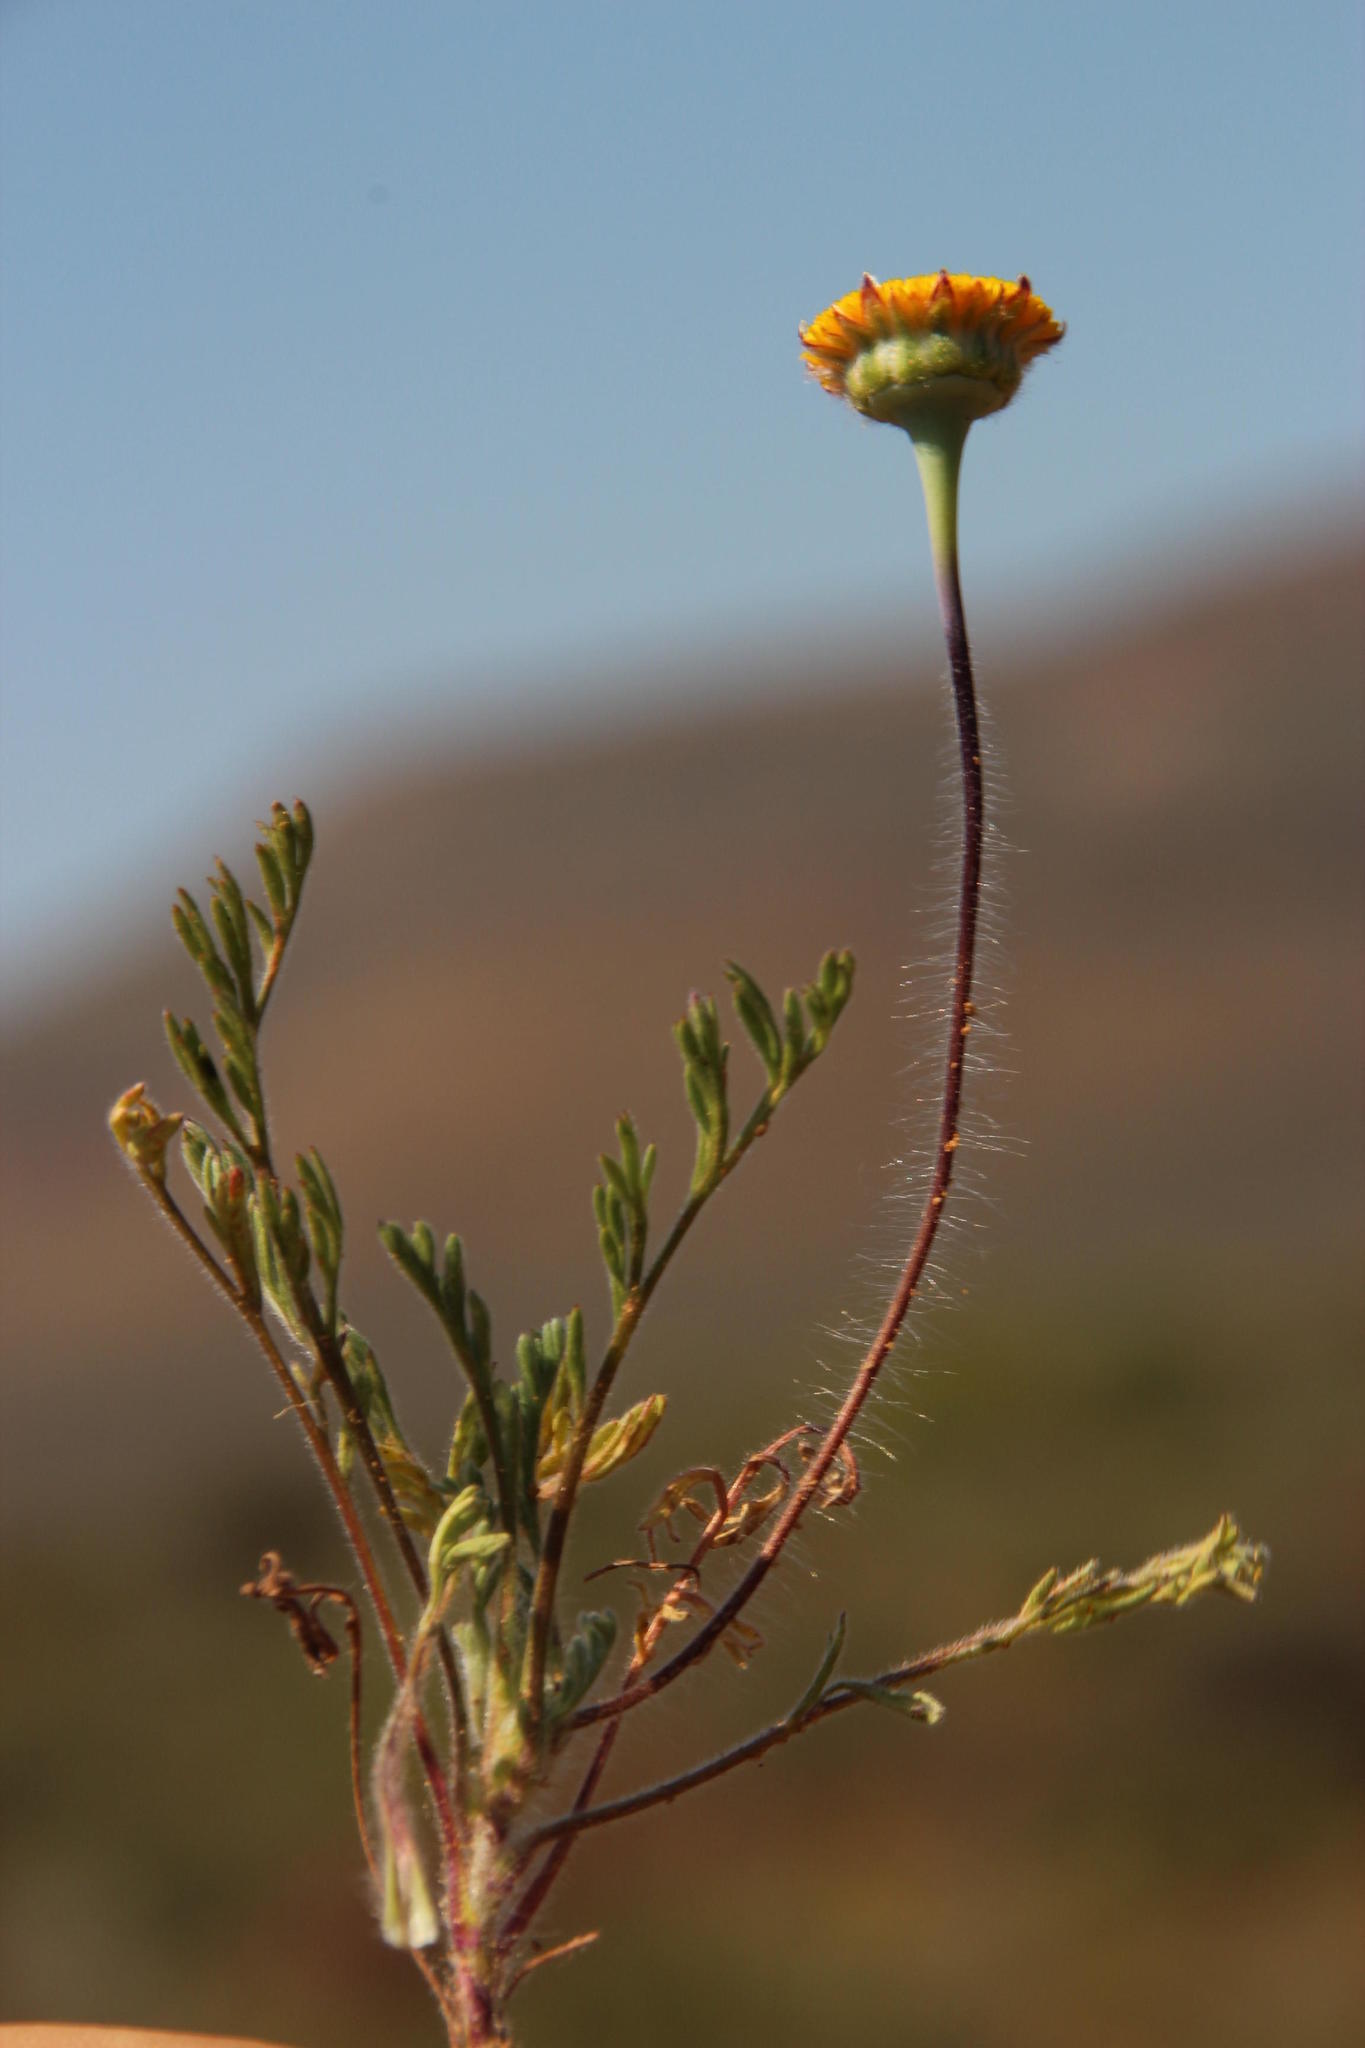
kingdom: Plantae
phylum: Tracheophyta
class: Magnoliopsida
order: Asterales
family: Asteraceae
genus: Cotula
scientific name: Cotula microglossa
